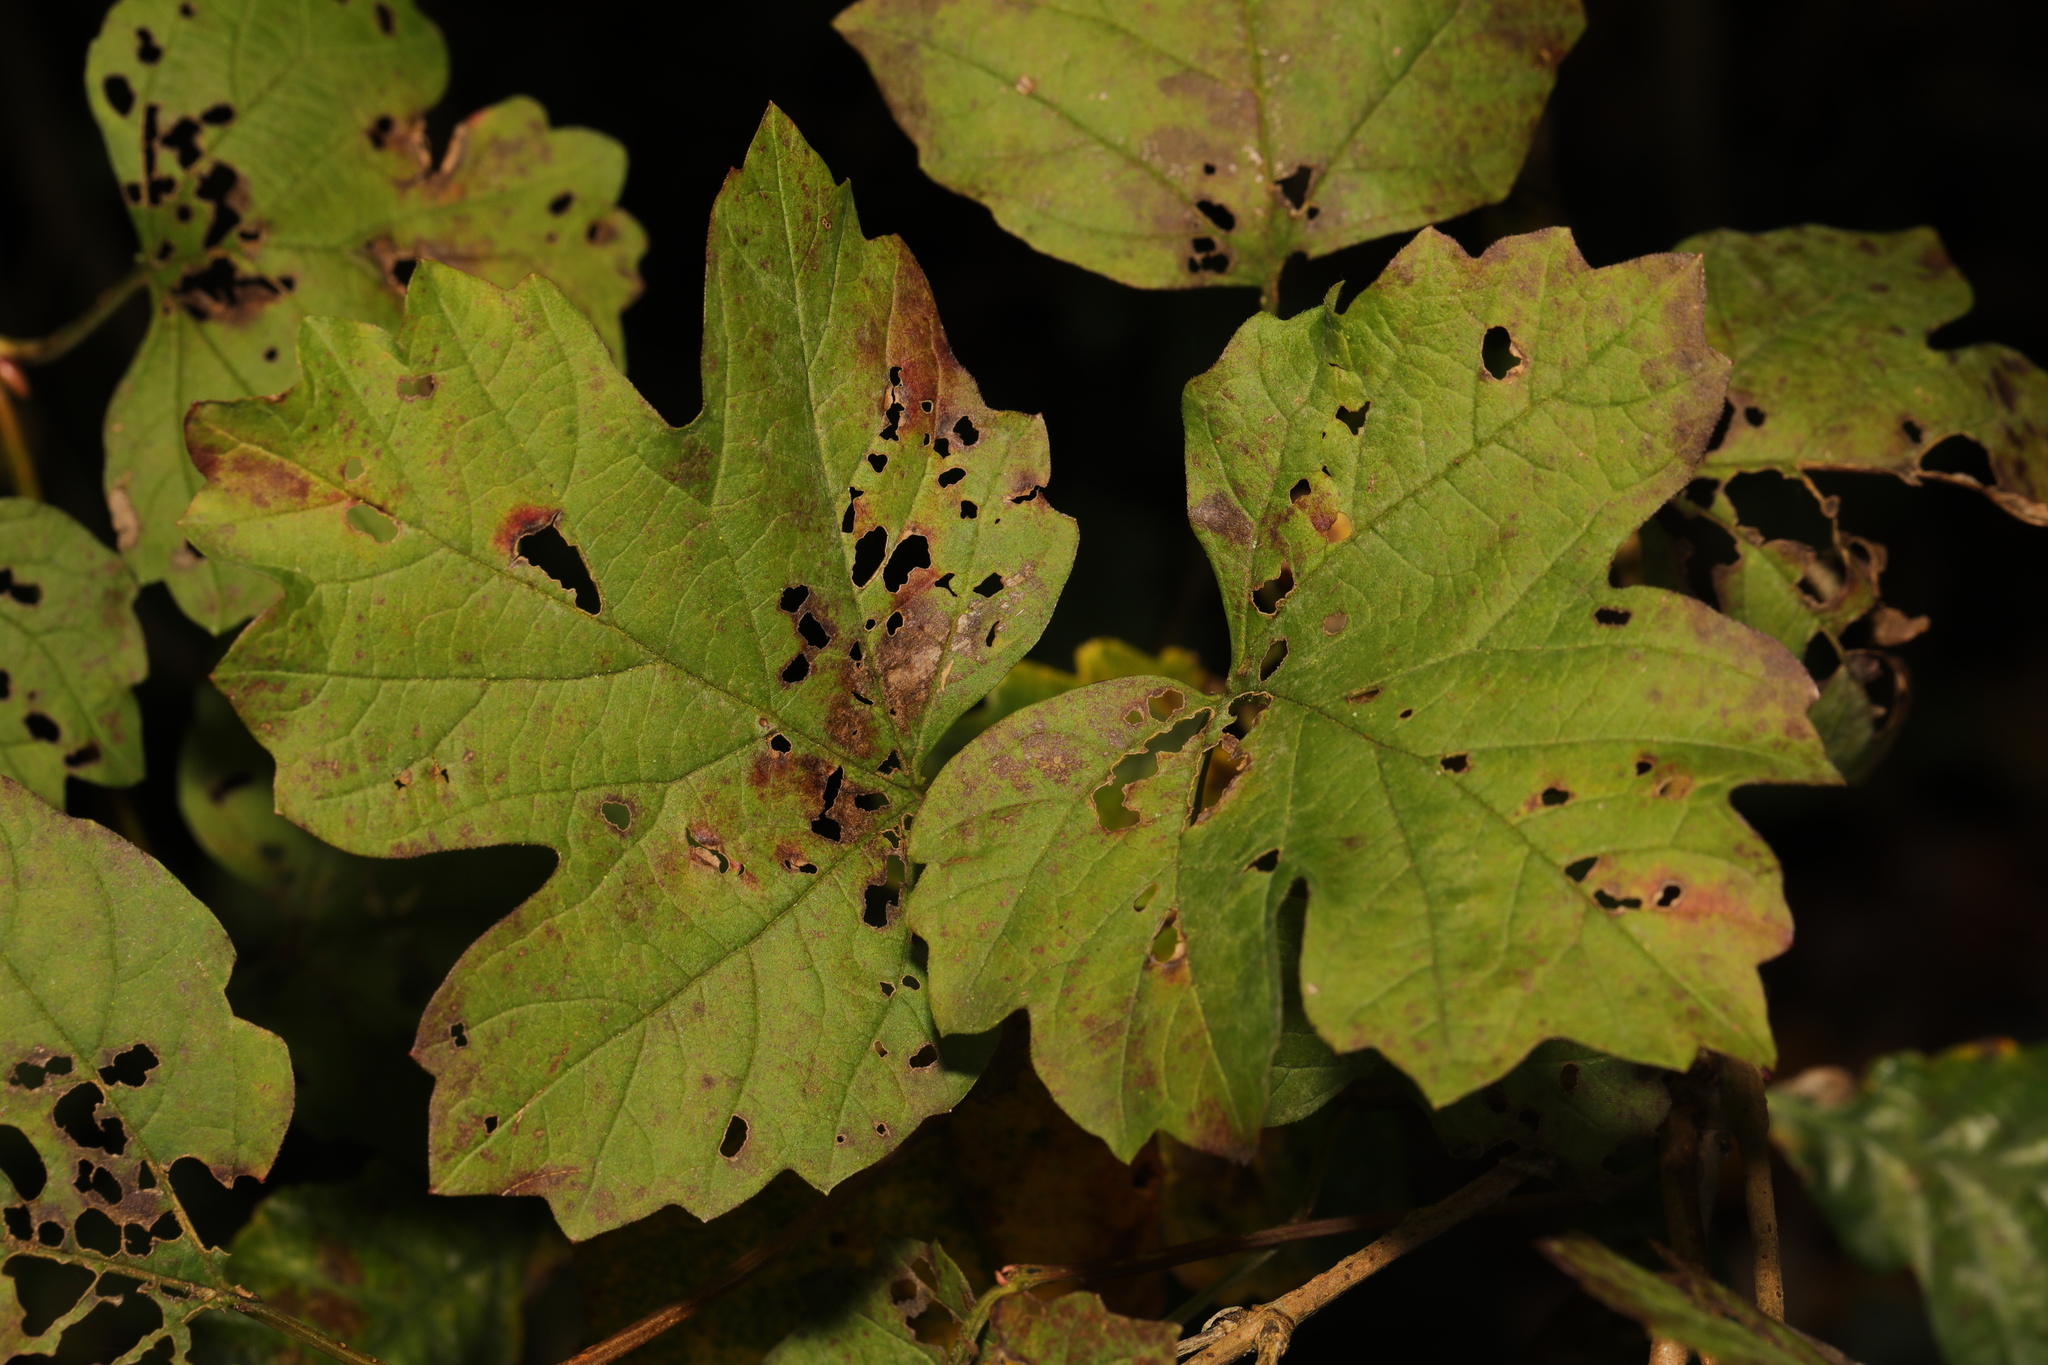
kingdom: Plantae
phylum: Tracheophyta
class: Magnoliopsida
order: Dipsacales
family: Viburnaceae
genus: Viburnum
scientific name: Viburnum opulus
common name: Guelder-rose
